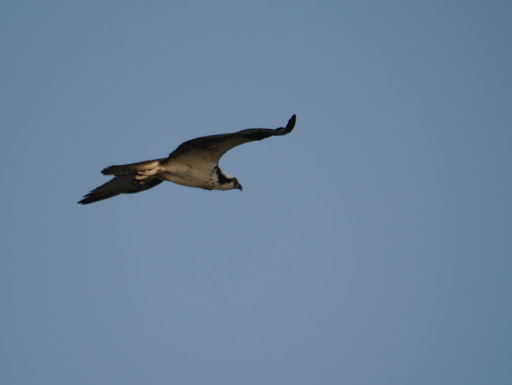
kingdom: Animalia
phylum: Chordata
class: Aves
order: Accipitriformes
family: Pandionidae
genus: Pandion
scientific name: Pandion haliaetus
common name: Osprey
